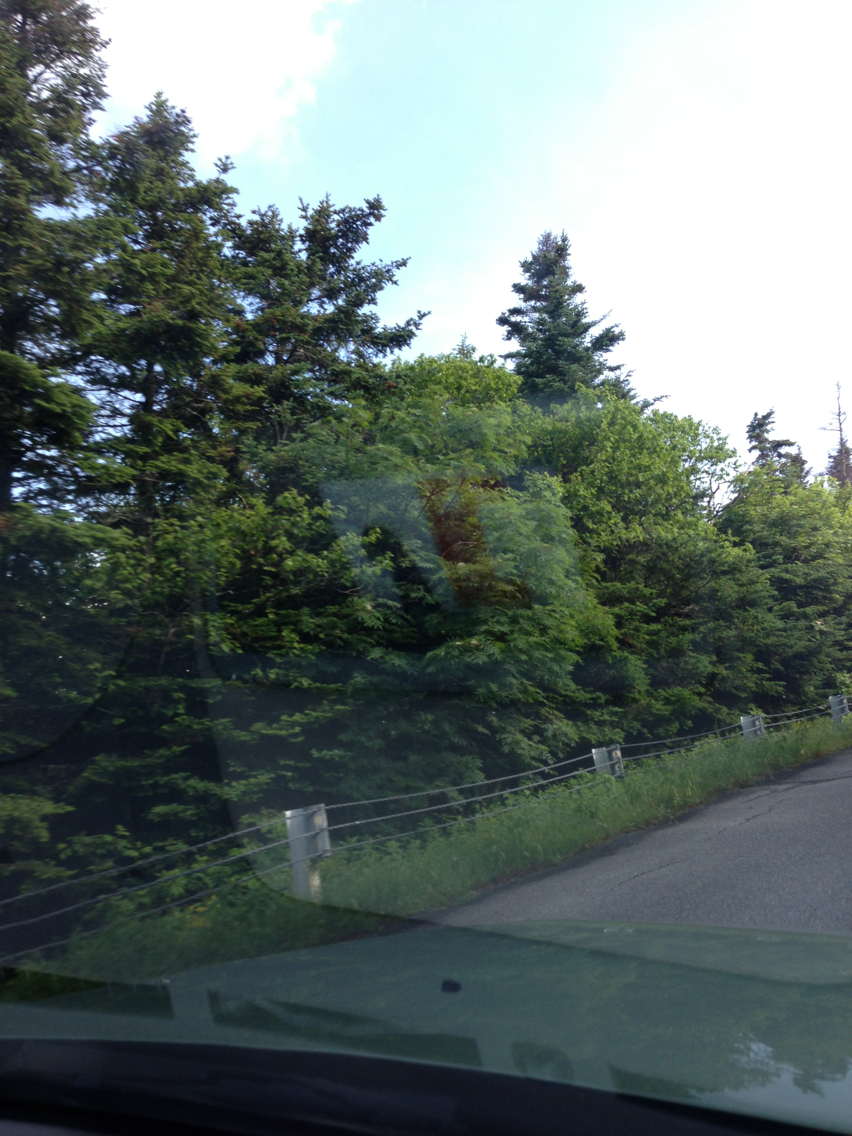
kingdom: Plantae
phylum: Tracheophyta
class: Pinopsida
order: Pinales
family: Pinaceae
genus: Abies
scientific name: Abies balsamea
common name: Balsam fir
